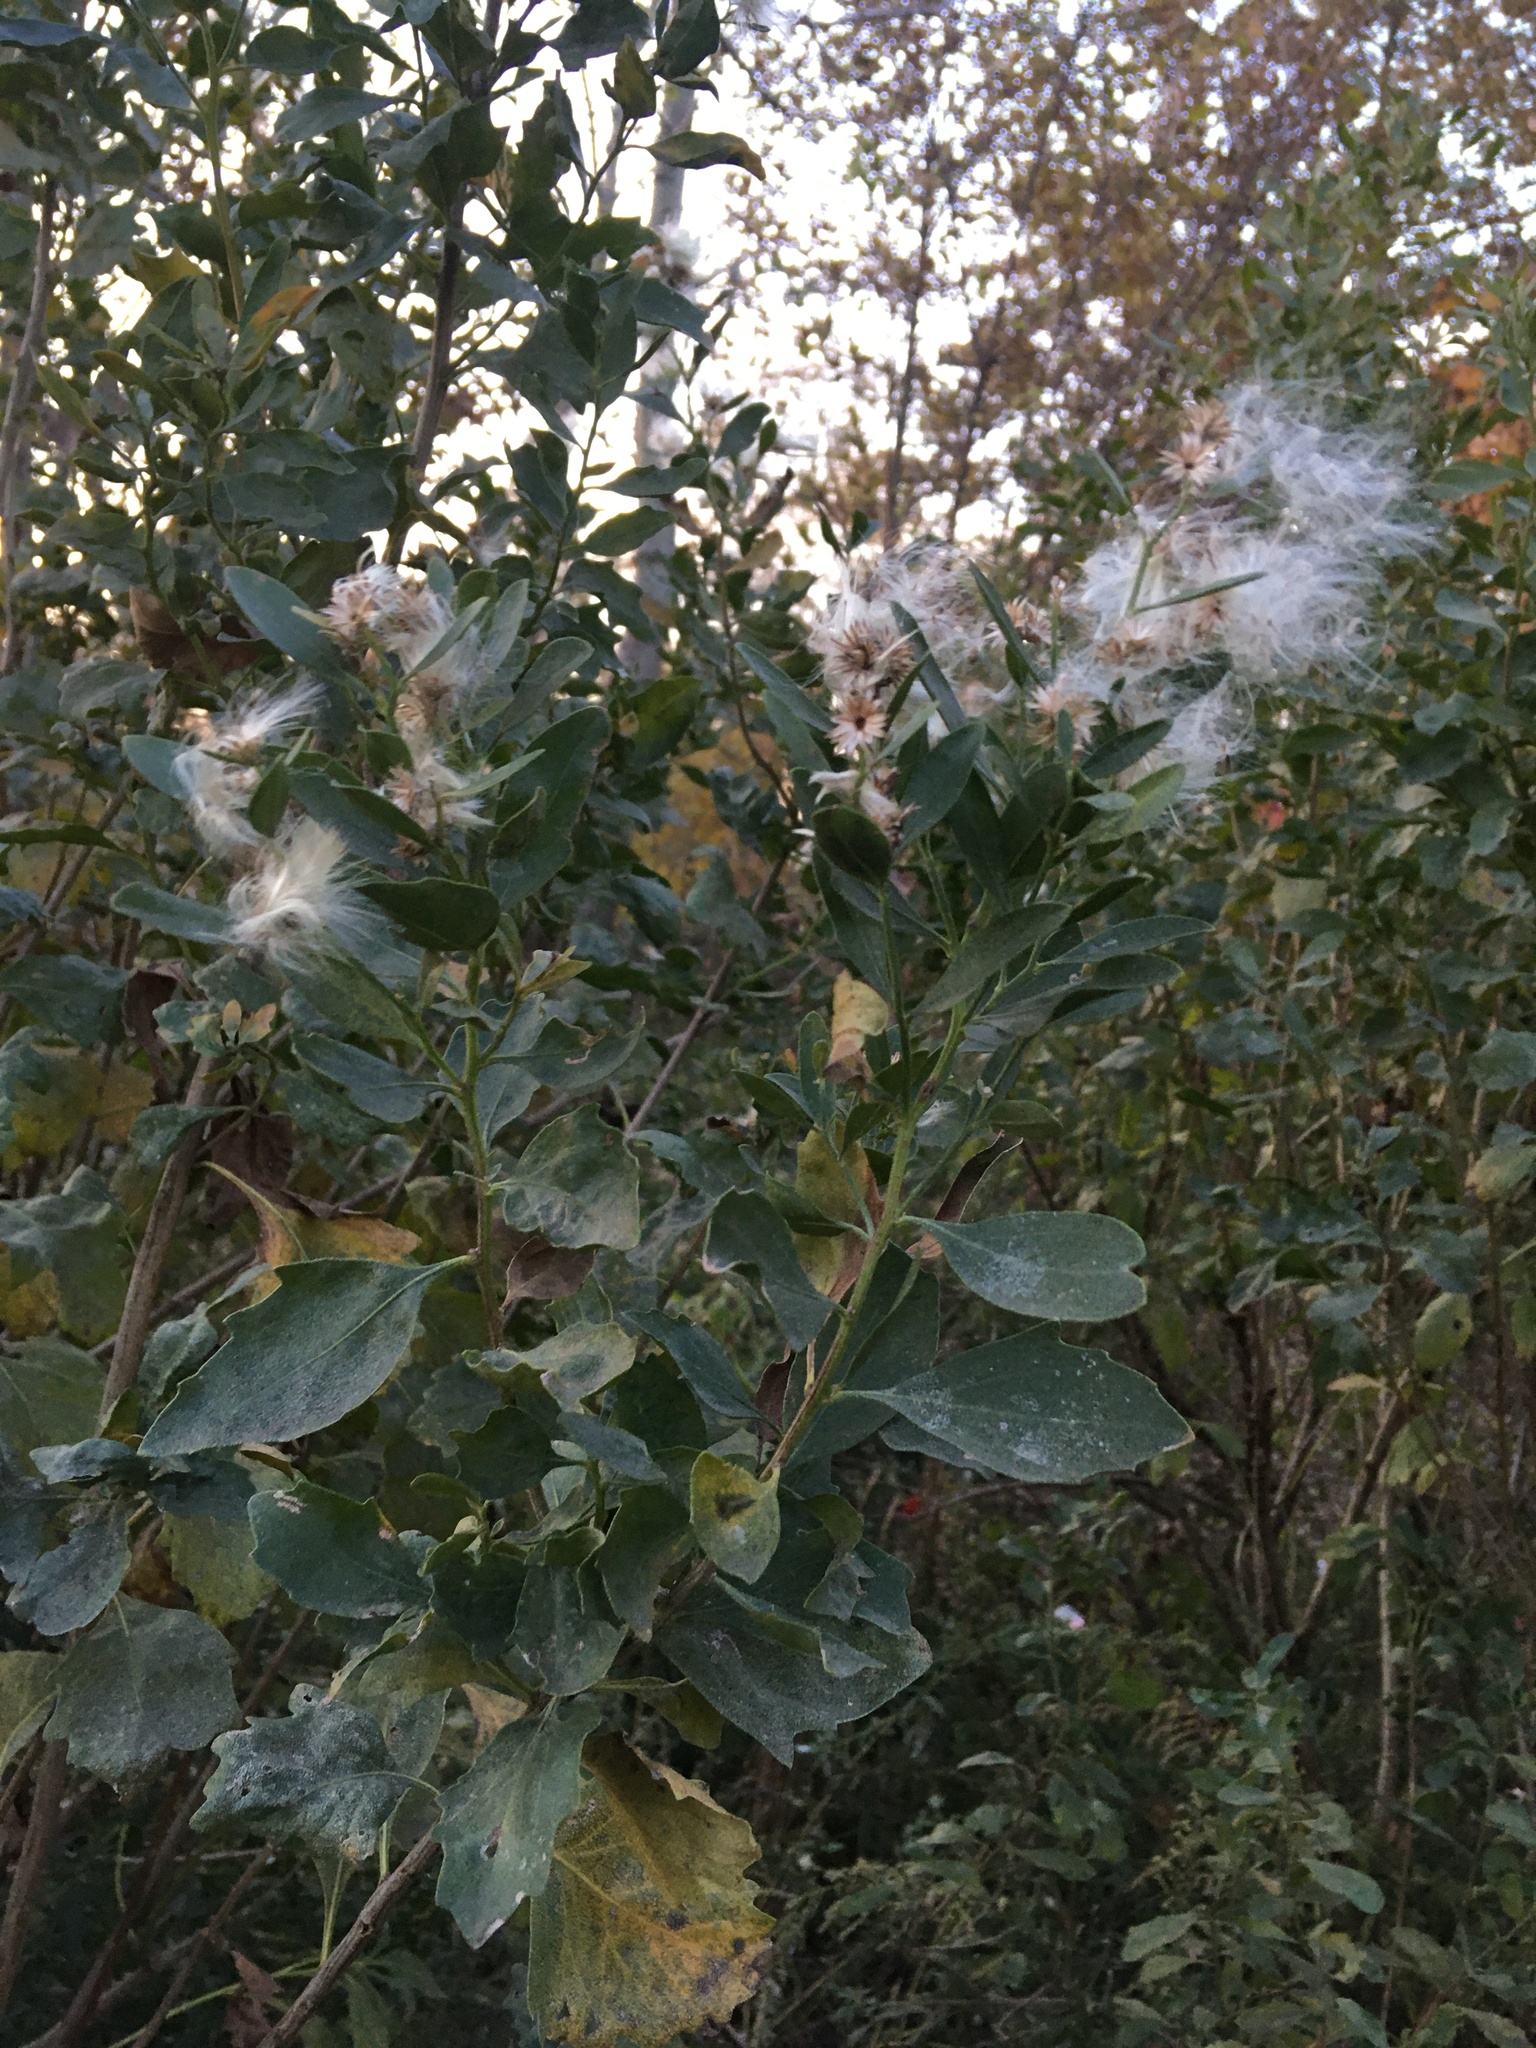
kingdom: Plantae
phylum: Tracheophyta
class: Magnoliopsida
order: Asterales
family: Asteraceae
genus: Baccharis
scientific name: Baccharis halimifolia
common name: Eastern baccharis
